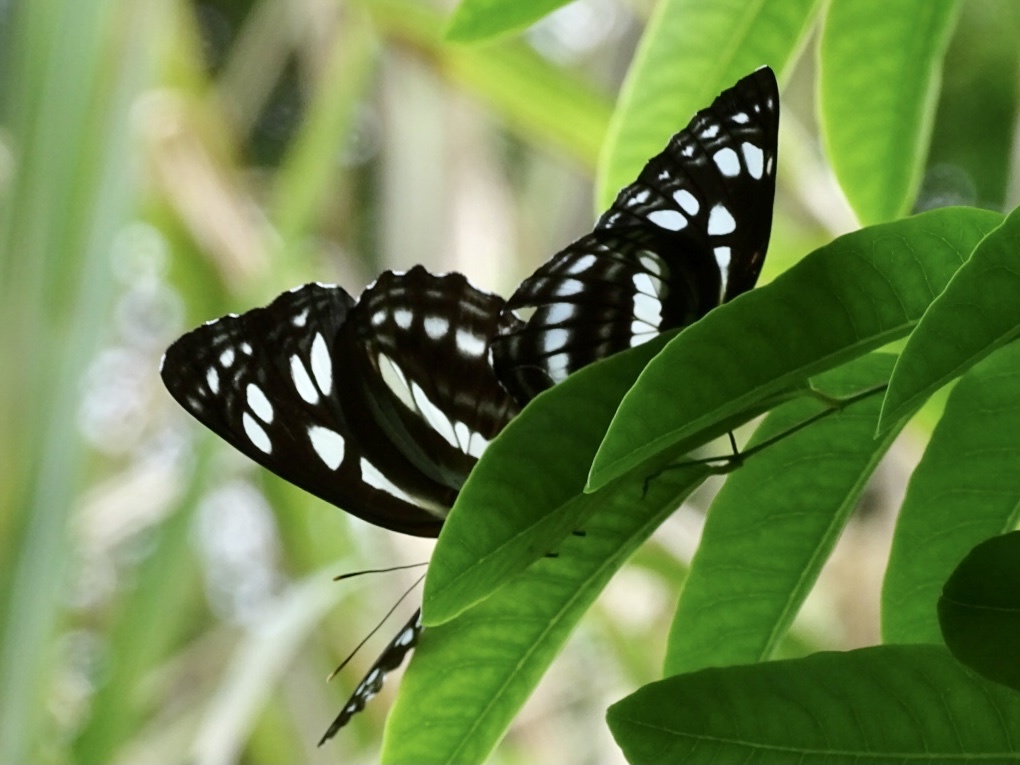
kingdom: Animalia
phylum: Arthropoda
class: Insecta
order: Lepidoptera
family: Nymphalidae
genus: Phaedyma
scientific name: Phaedyma columella
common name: Short banded sailer
